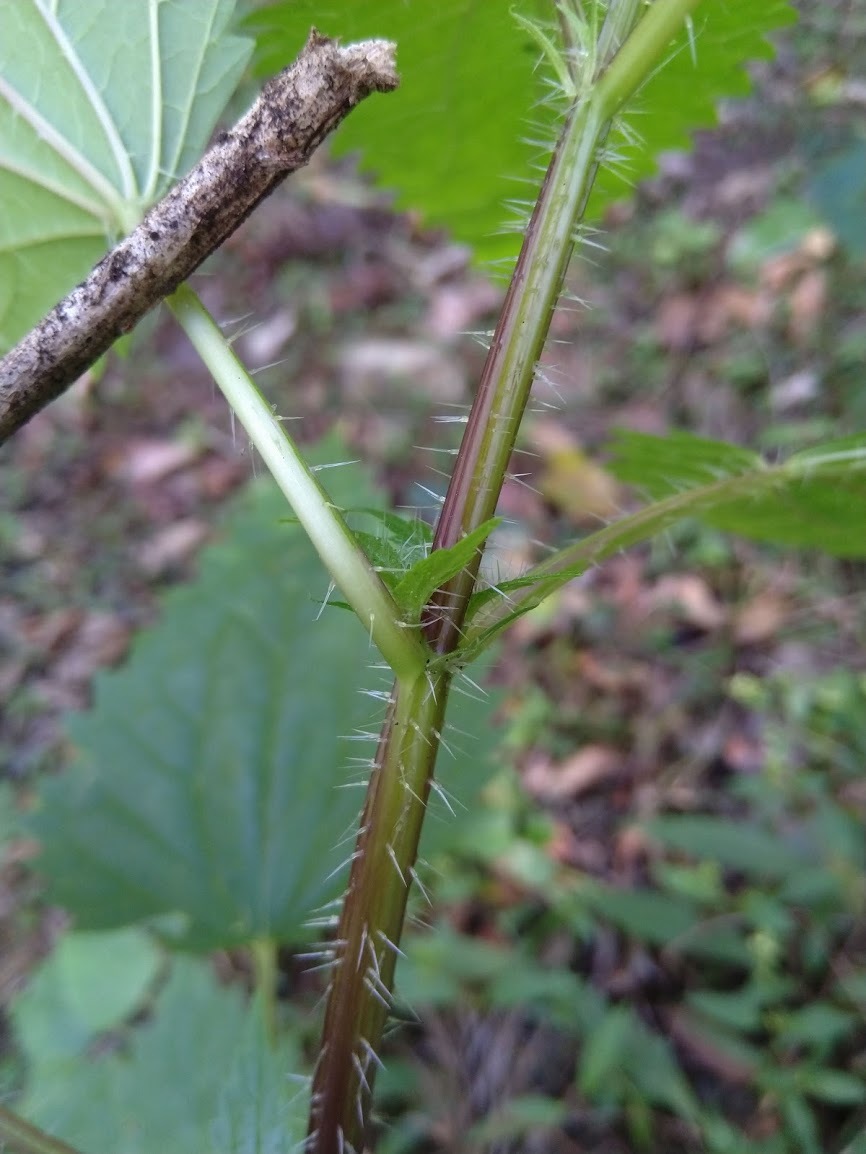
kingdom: Plantae
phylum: Tracheophyta
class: Magnoliopsida
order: Rosales
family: Urticaceae
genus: Urtica
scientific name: Urtica incisa
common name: Scrub nettle
